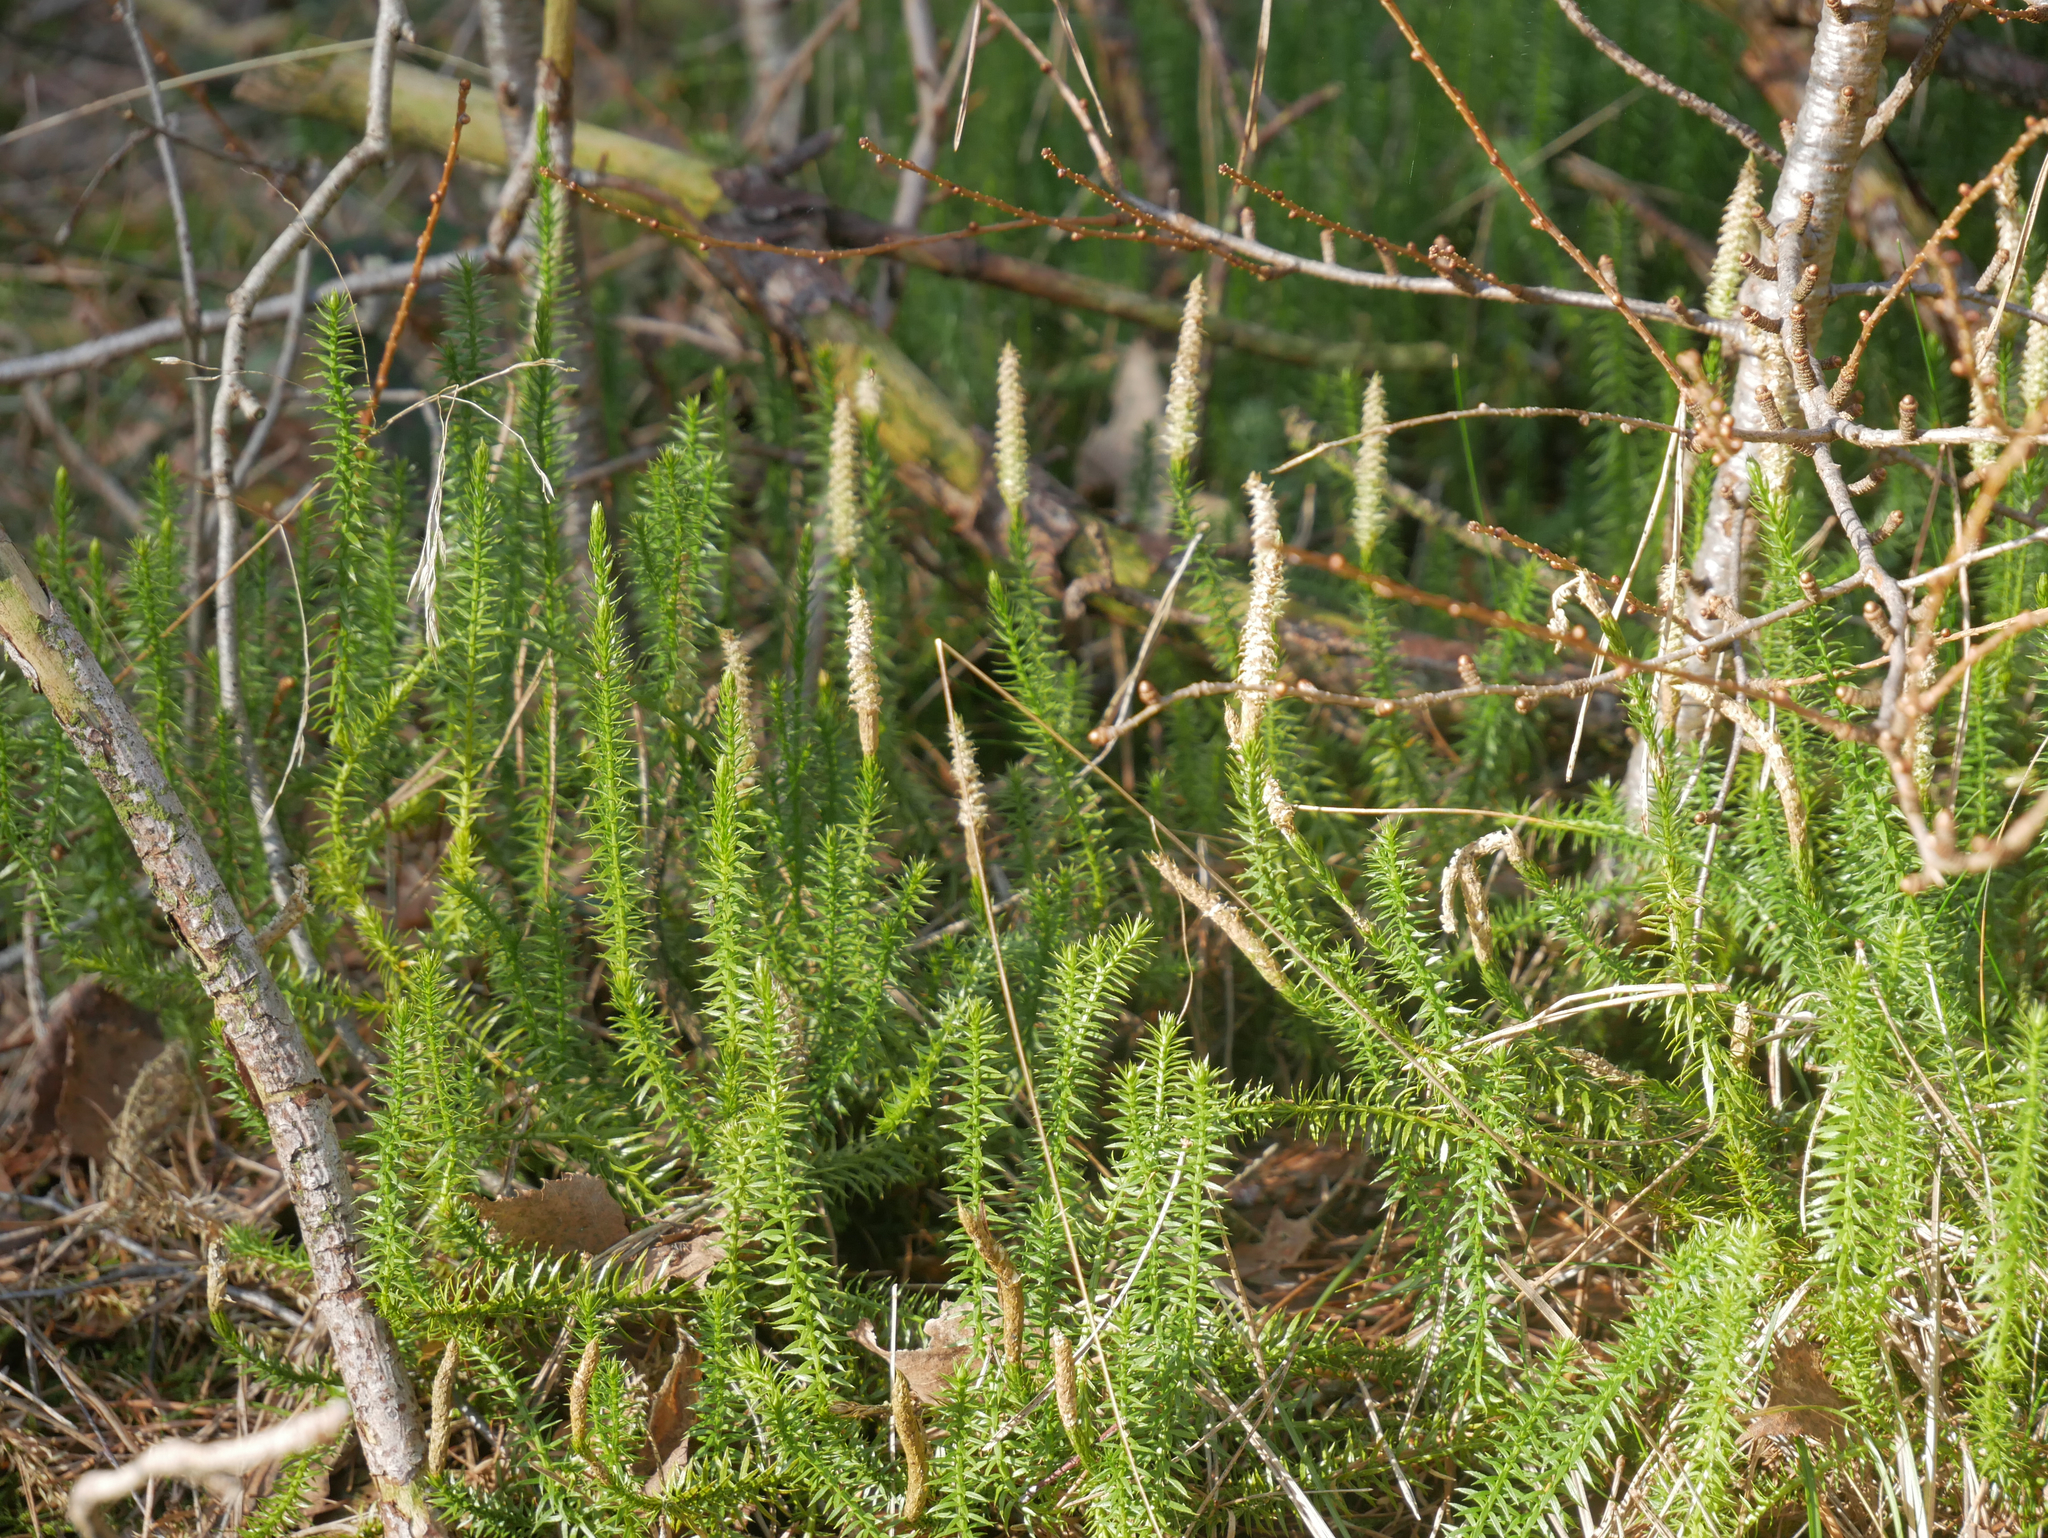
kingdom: Plantae
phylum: Tracheophyta
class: Lycopodiopsida
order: Lycopodiales
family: Lycopodiaceae
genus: Spinulum
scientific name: Spinulum annotinum
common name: Interrupted club-moss
